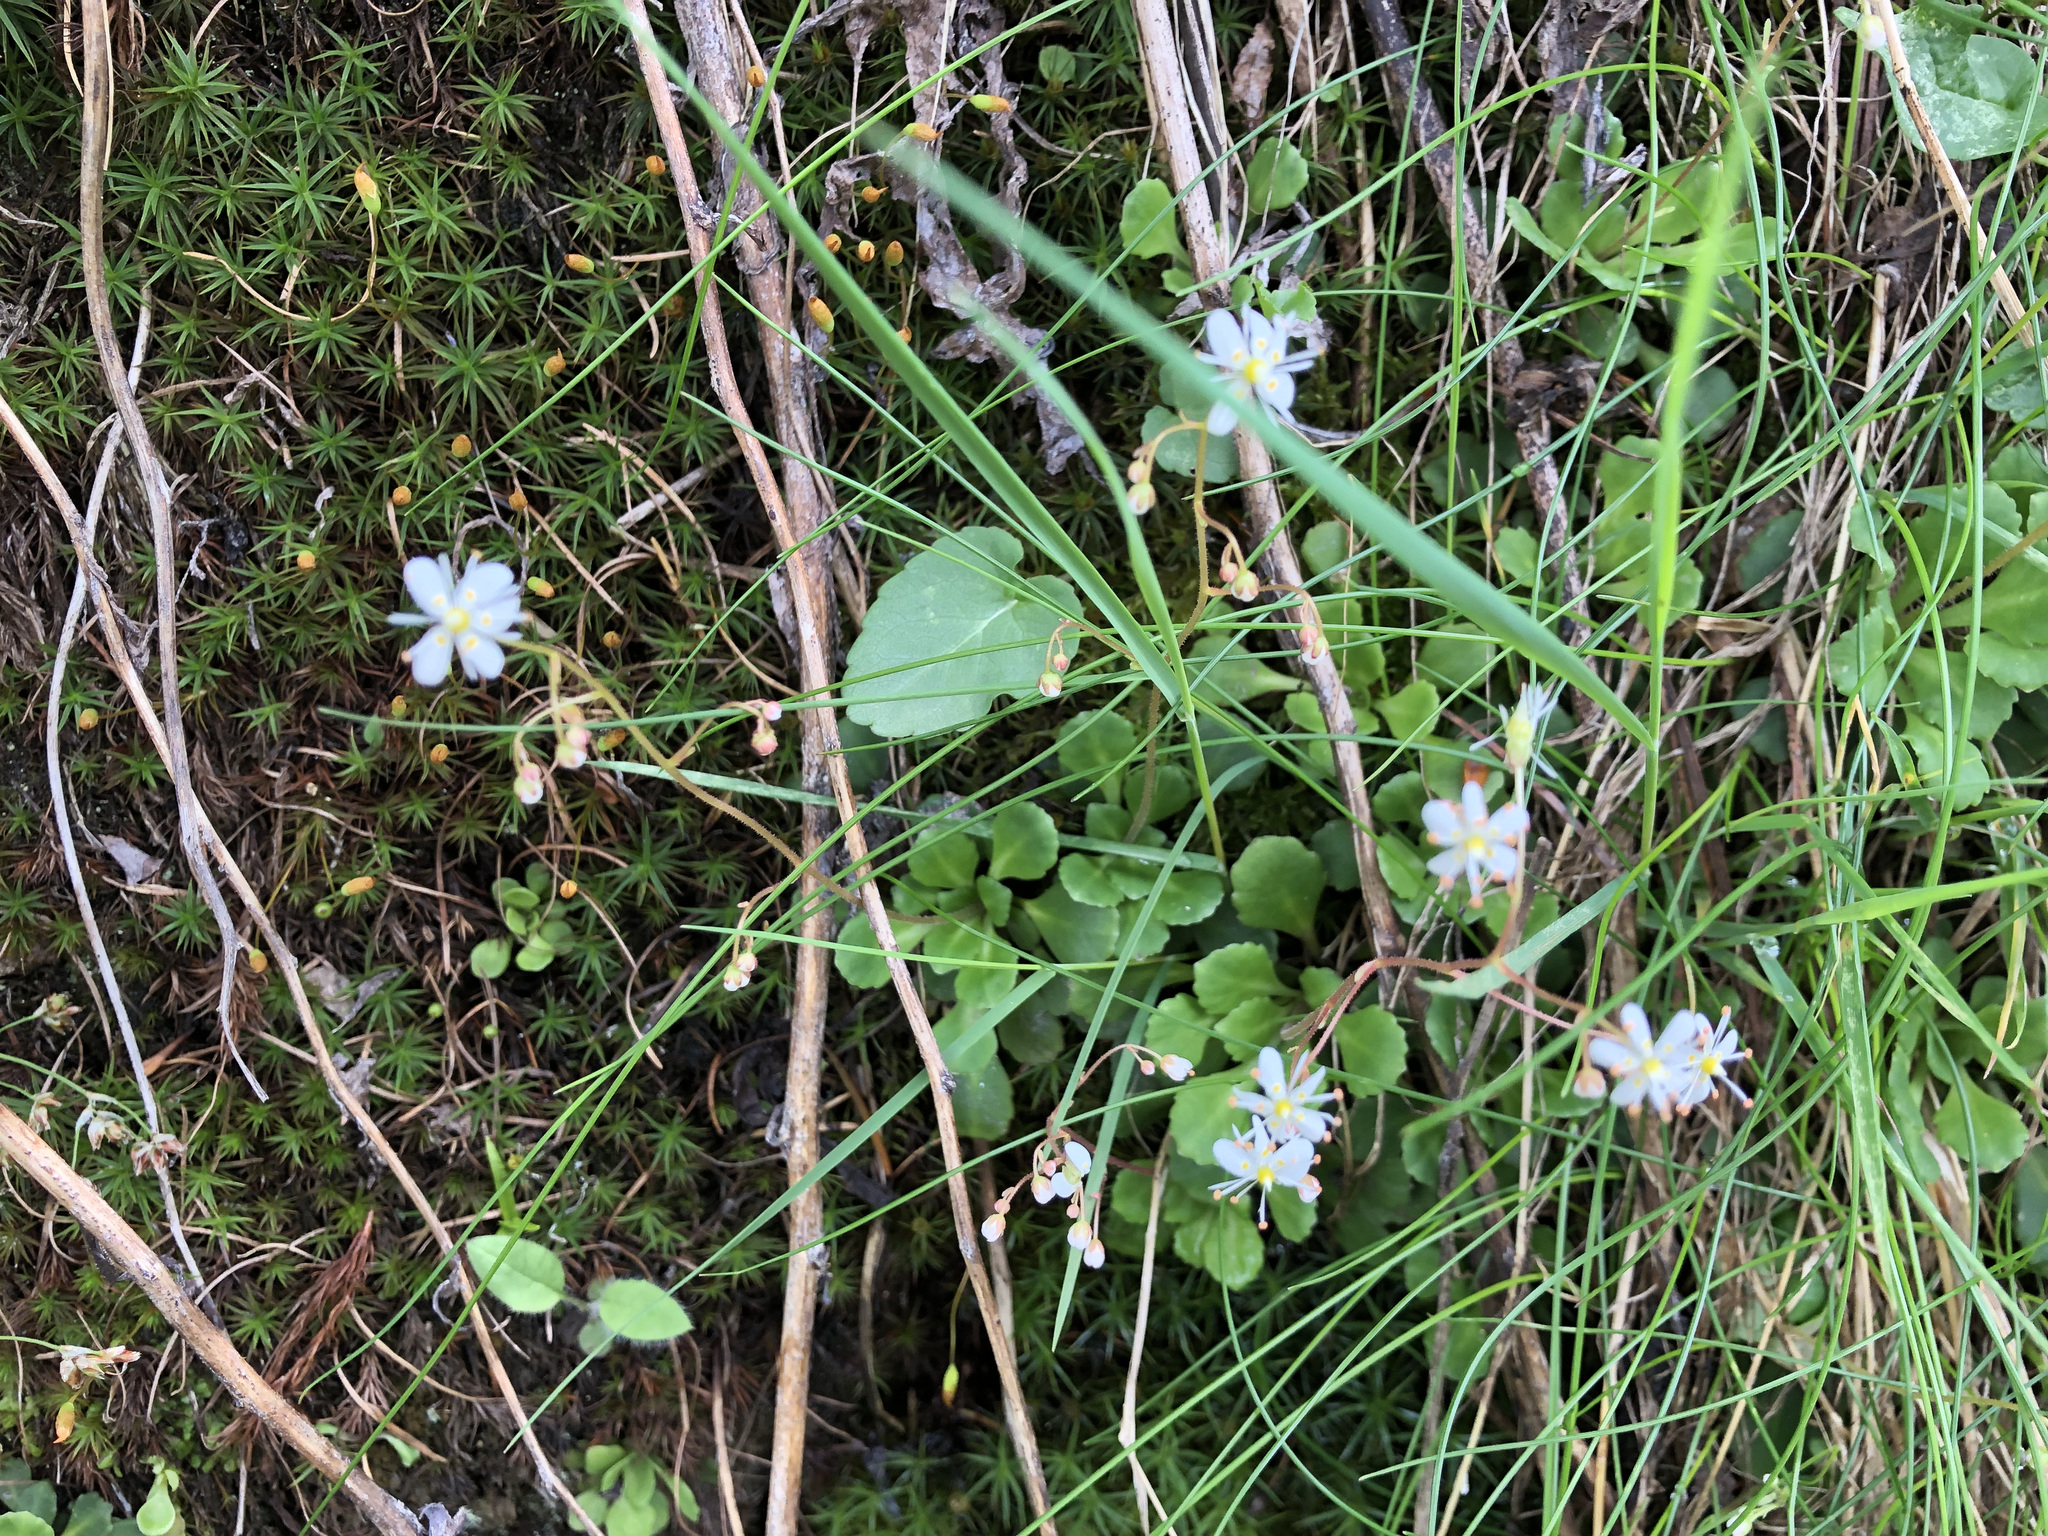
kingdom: Plantae
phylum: Tracheophyta
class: Magnoliopsida
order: Saxifragales
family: Saxifragaceae
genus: Saxifraga
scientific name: Saxifraga cuneifolia
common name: Lesser londonpride
